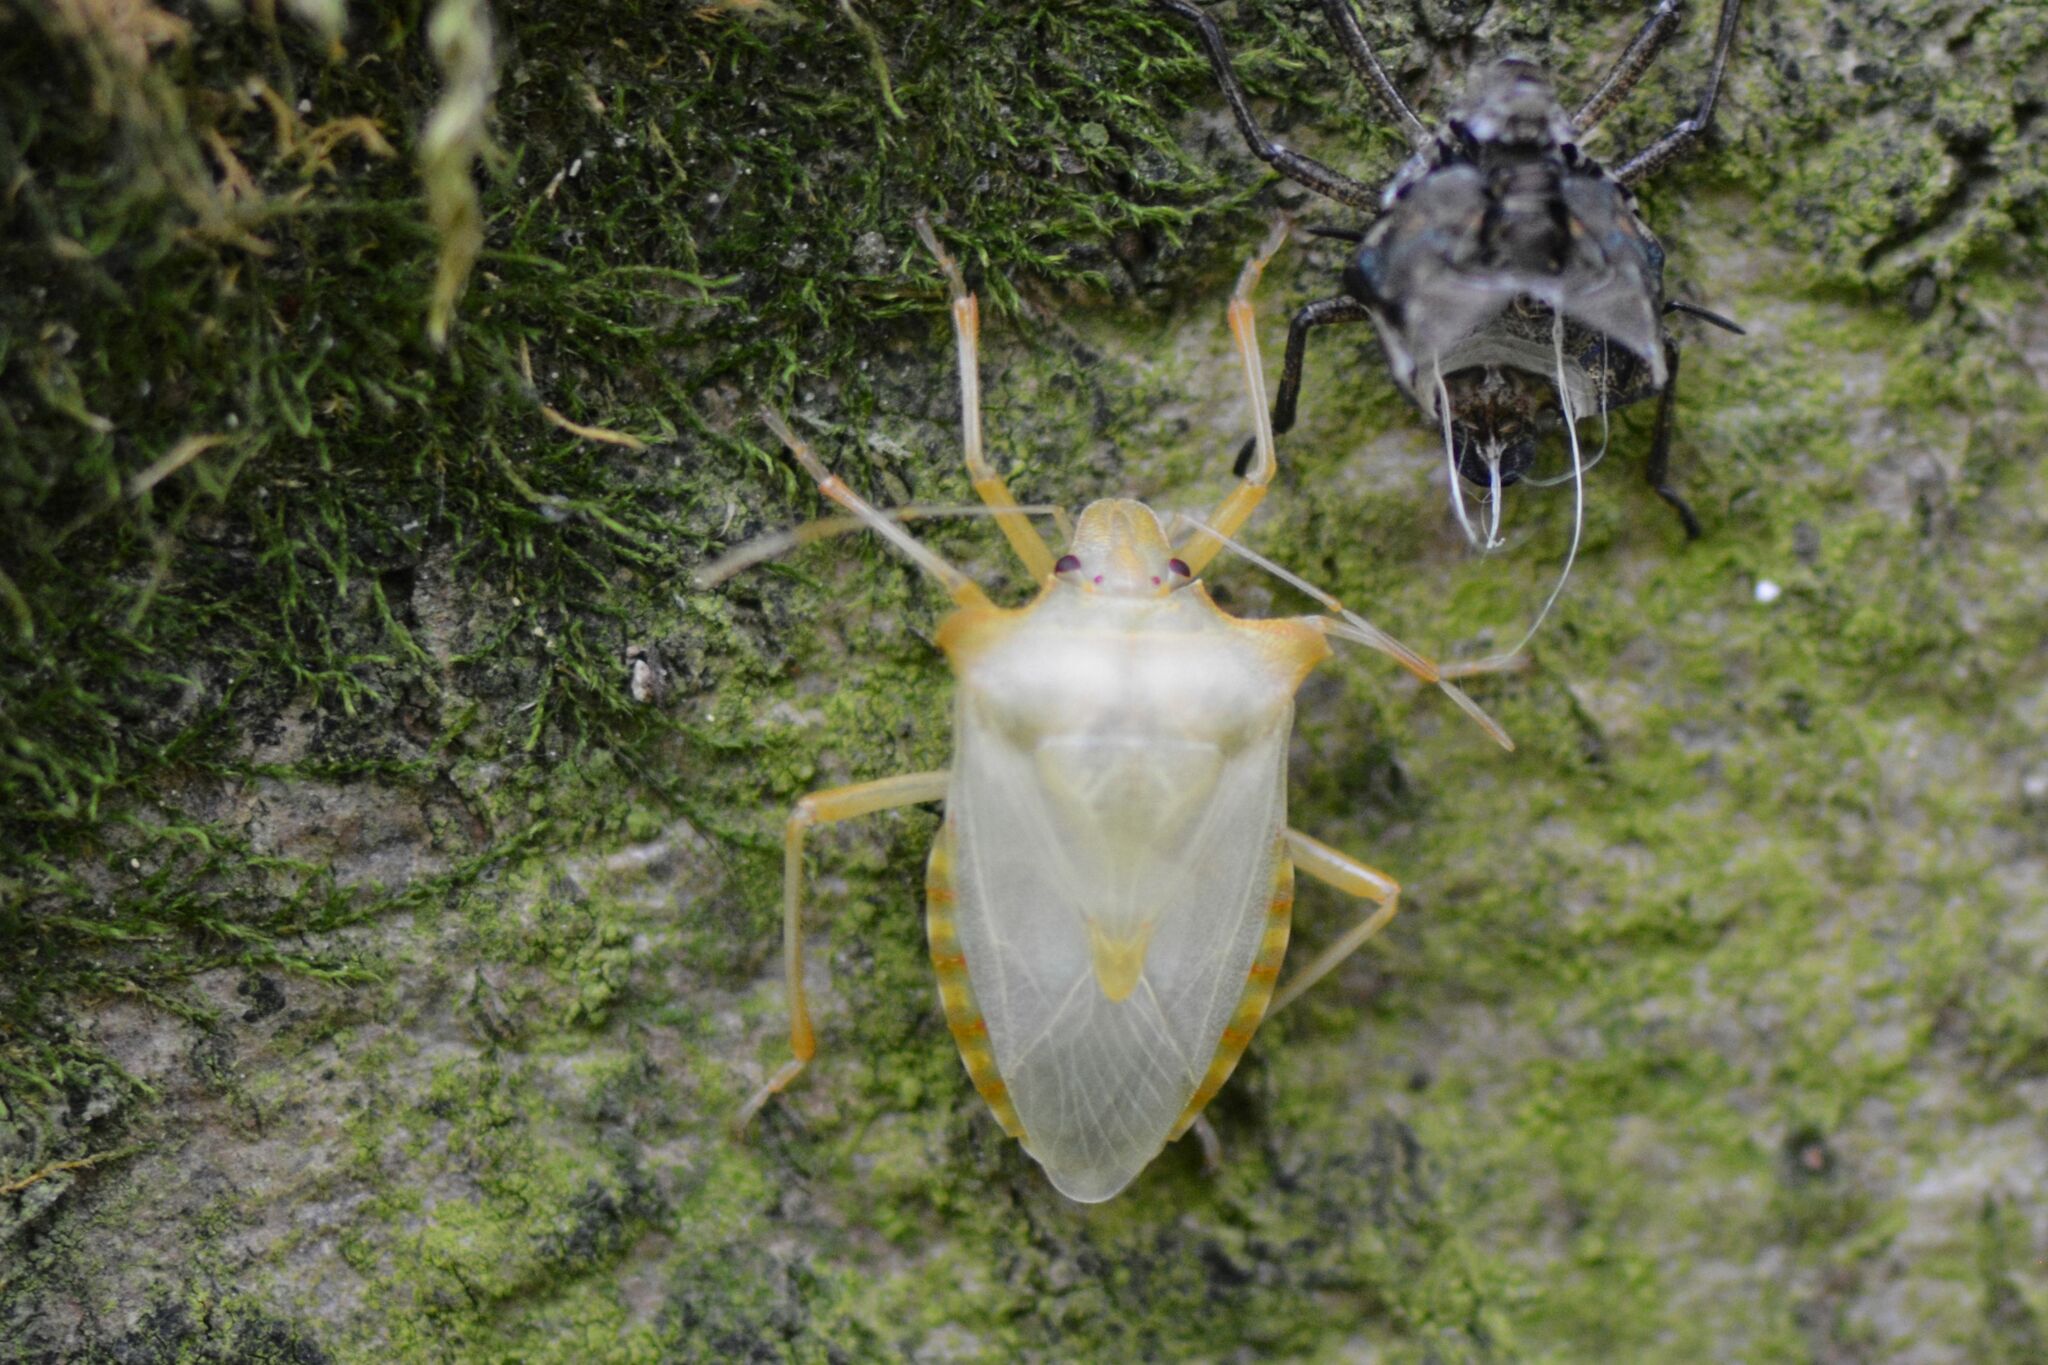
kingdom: Animalia
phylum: Arthropoda
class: Insecta
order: Hemiptera
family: Pentatomidae
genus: Pentatoma
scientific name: Pentatoma rufipes
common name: Forest bug
